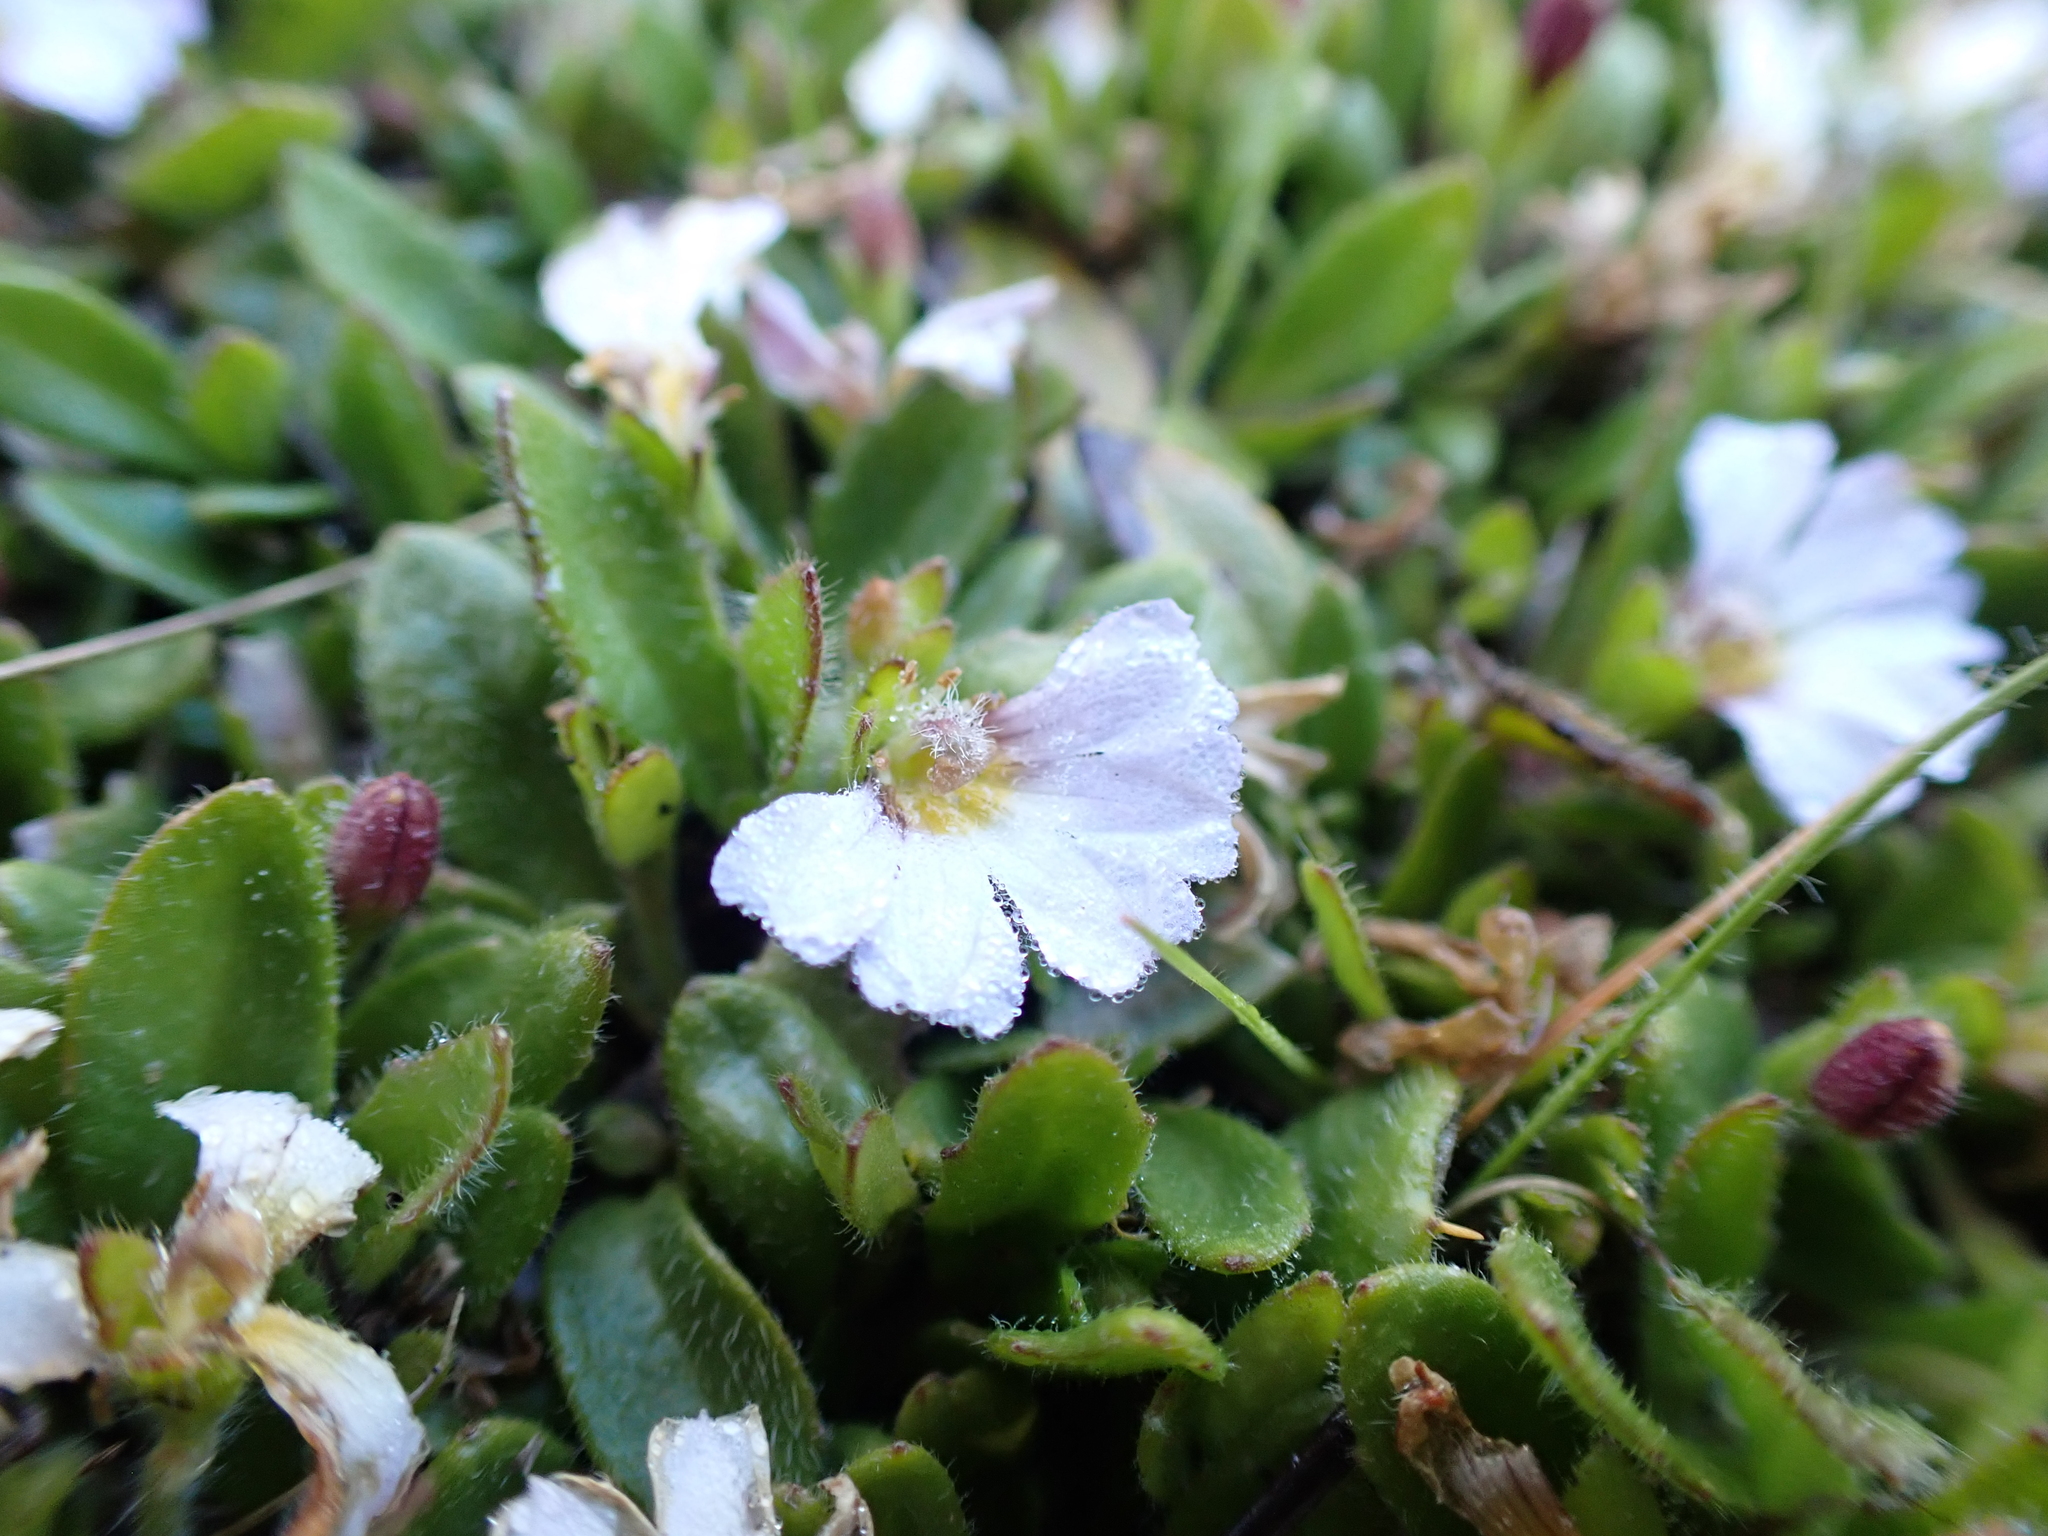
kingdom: Plantae
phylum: Tracheophyta
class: Magnoliopsida
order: Asterales
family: Goodeniaceae
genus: Scaevola
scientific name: Scaevola hookeri
